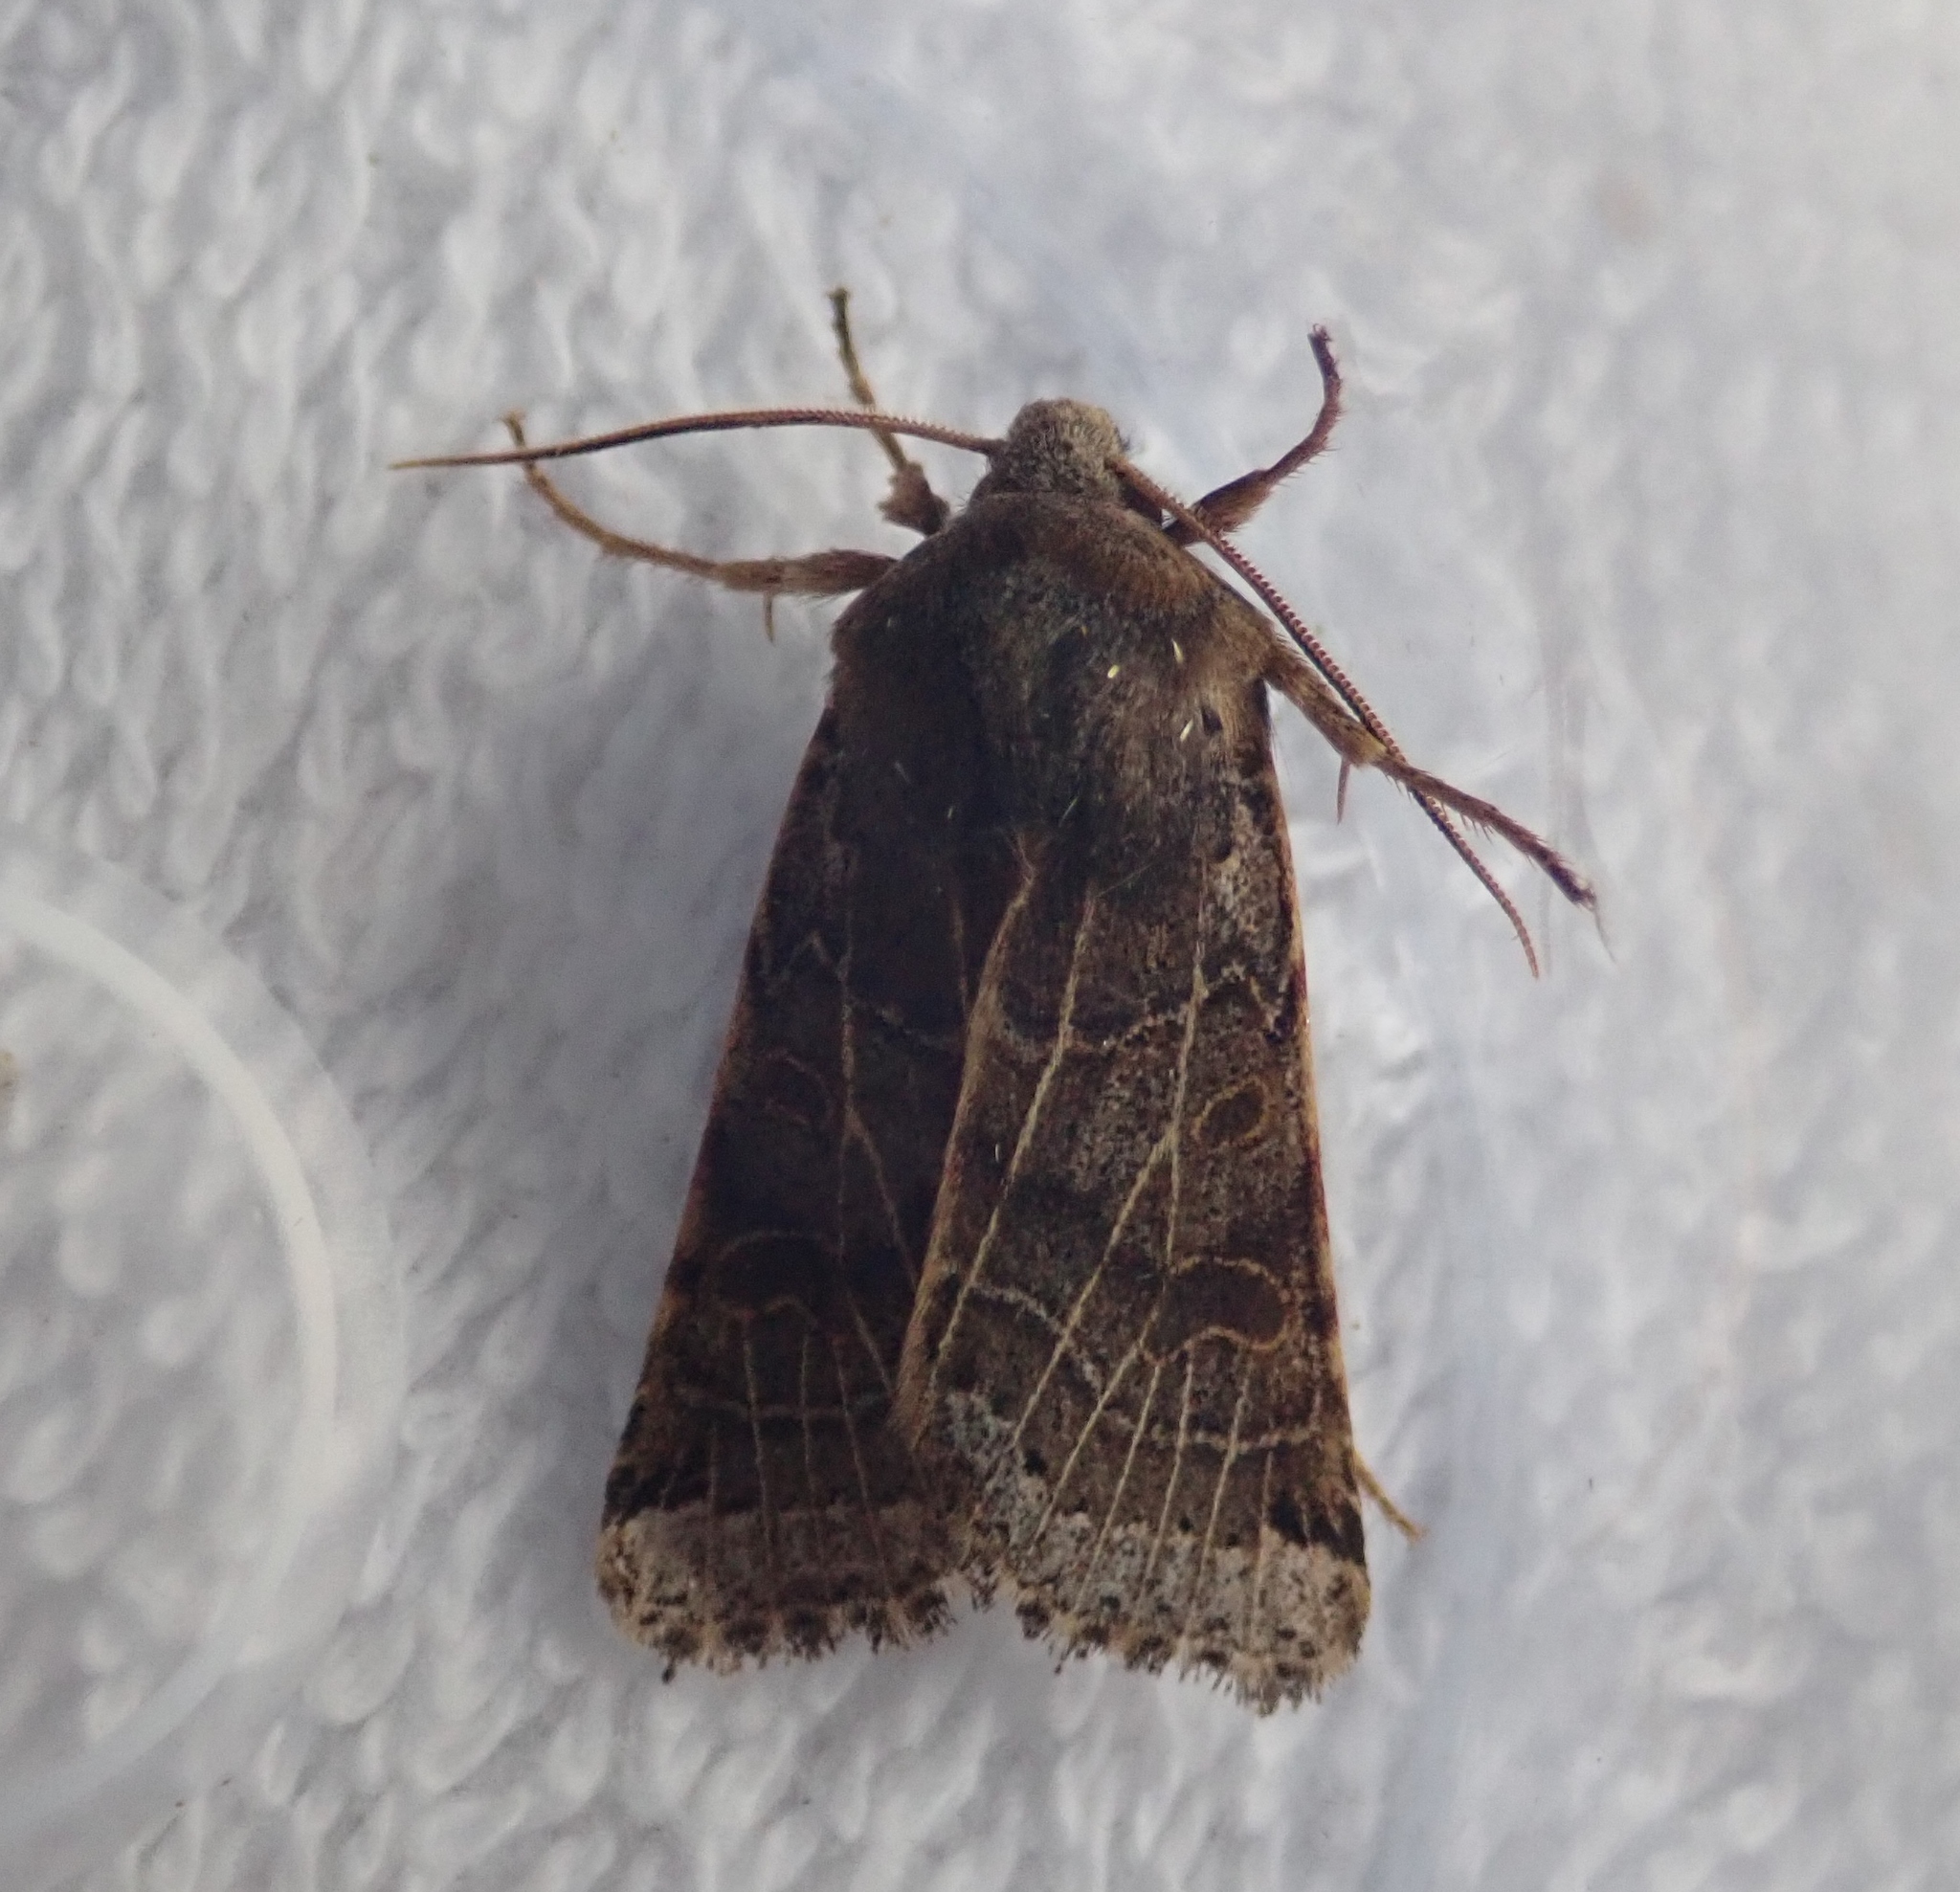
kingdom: Animalia
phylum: Arthropoda
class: Insecta
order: Lepidoptera
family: Noctuidae
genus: Agrochola
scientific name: Agrochola lunosa
